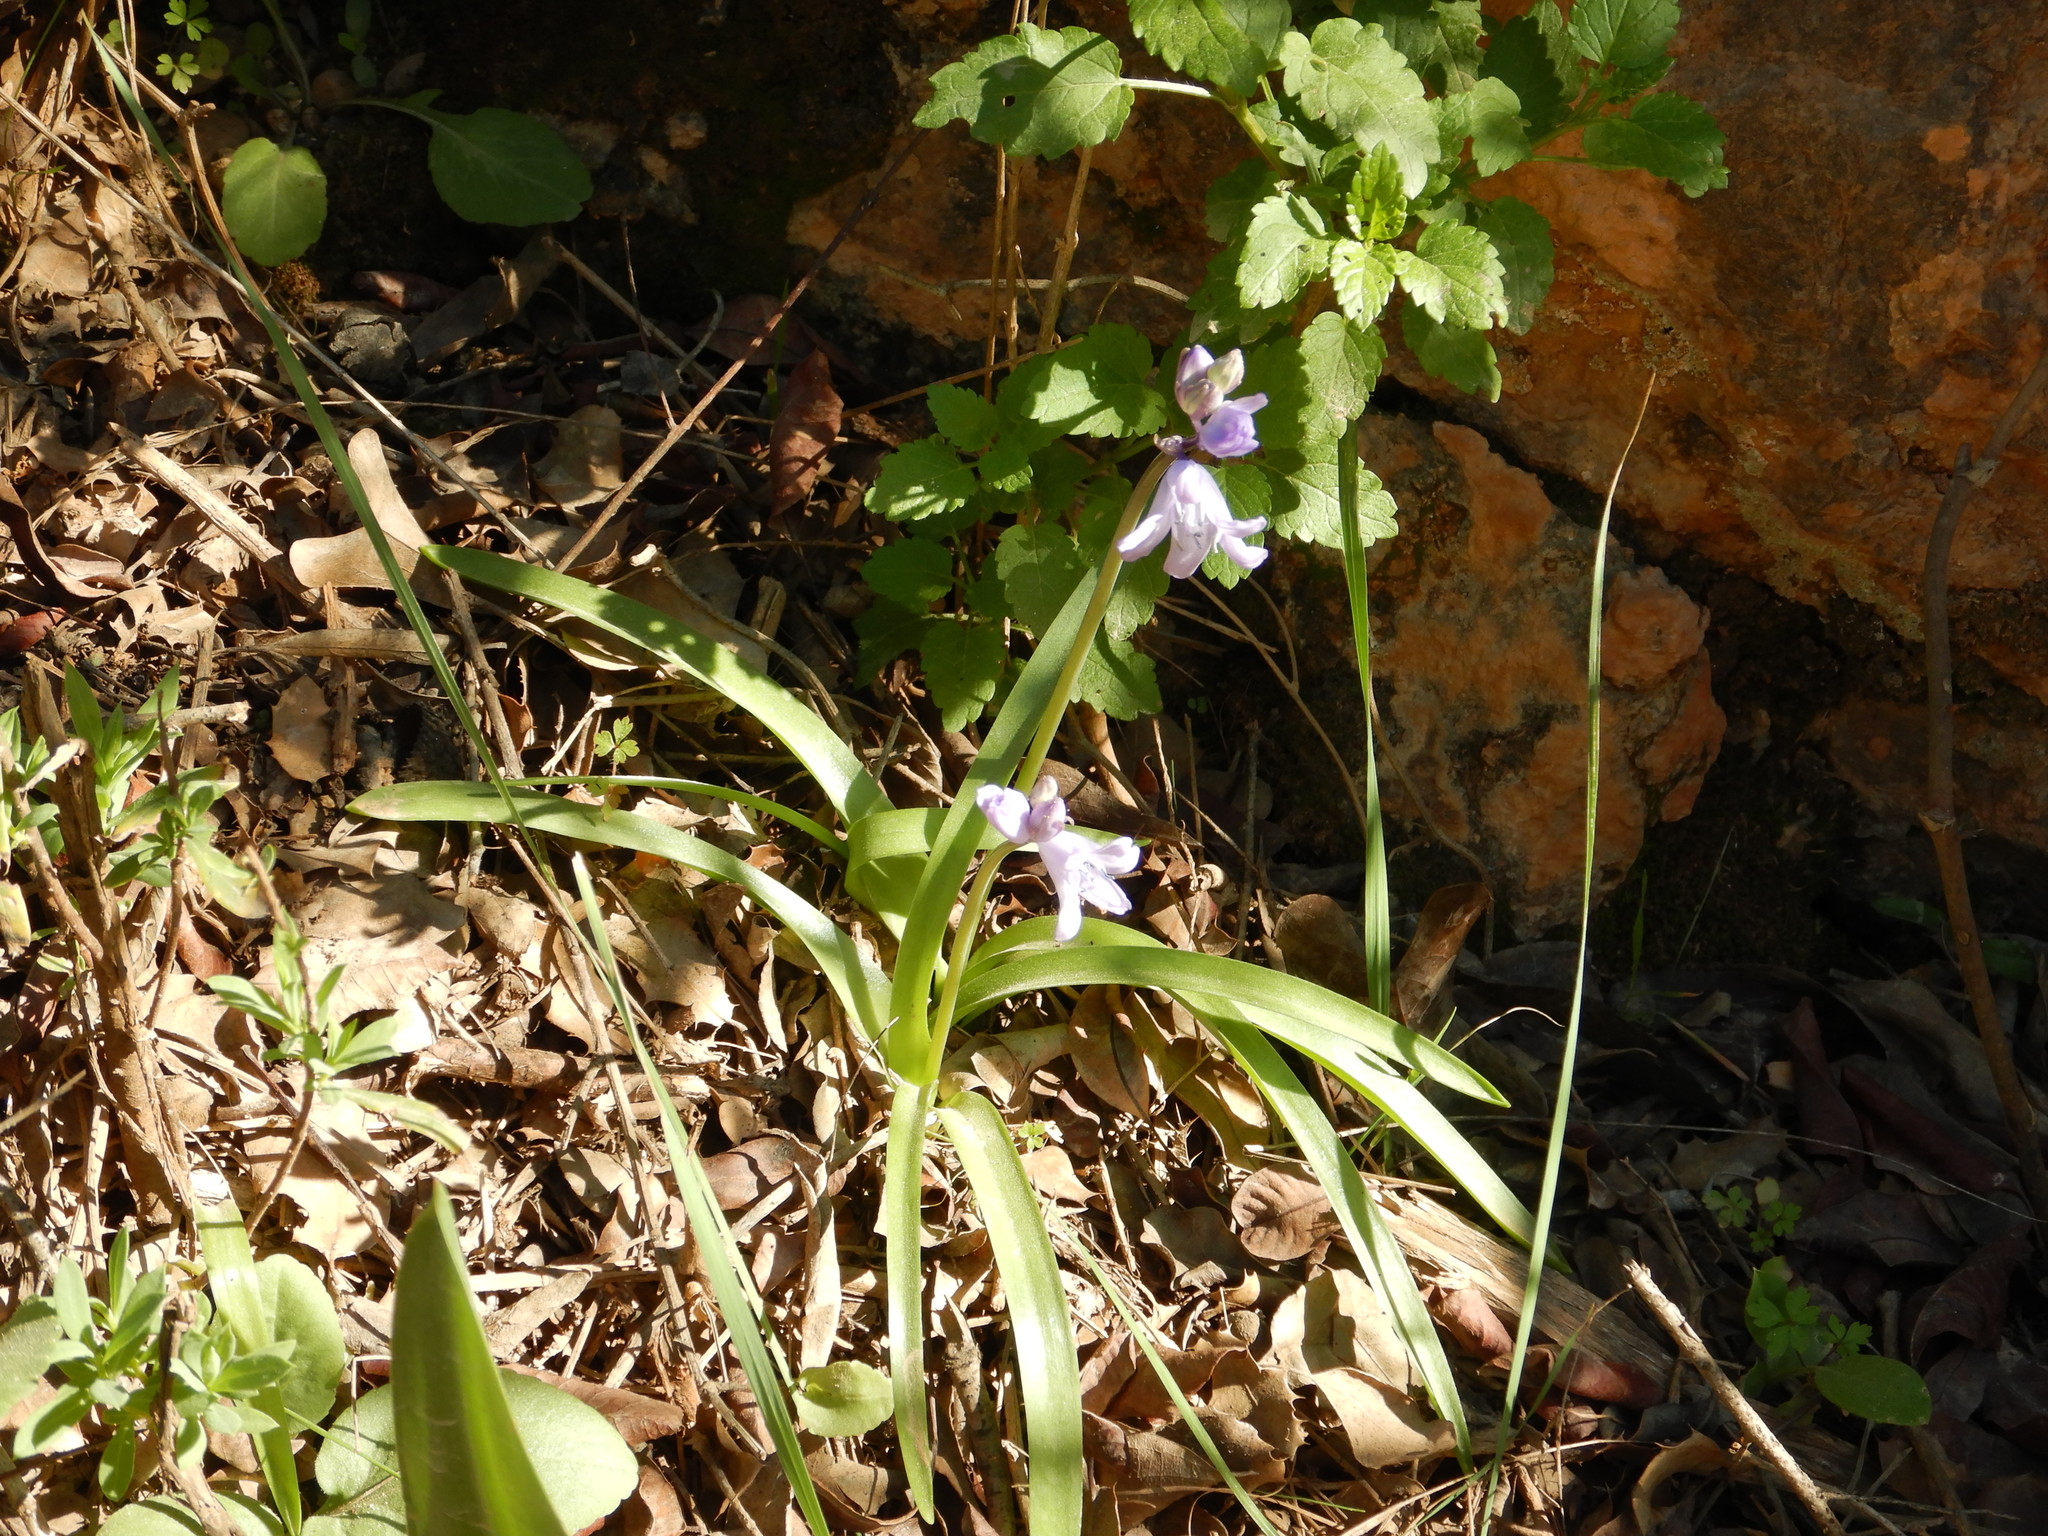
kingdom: Plantae
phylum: Tracheophyta
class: Liliopsida
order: Asparagales
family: Asparagaceae
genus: Hyacinthoides
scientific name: Hyacinthoides hispanica
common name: Spanish bluebell
